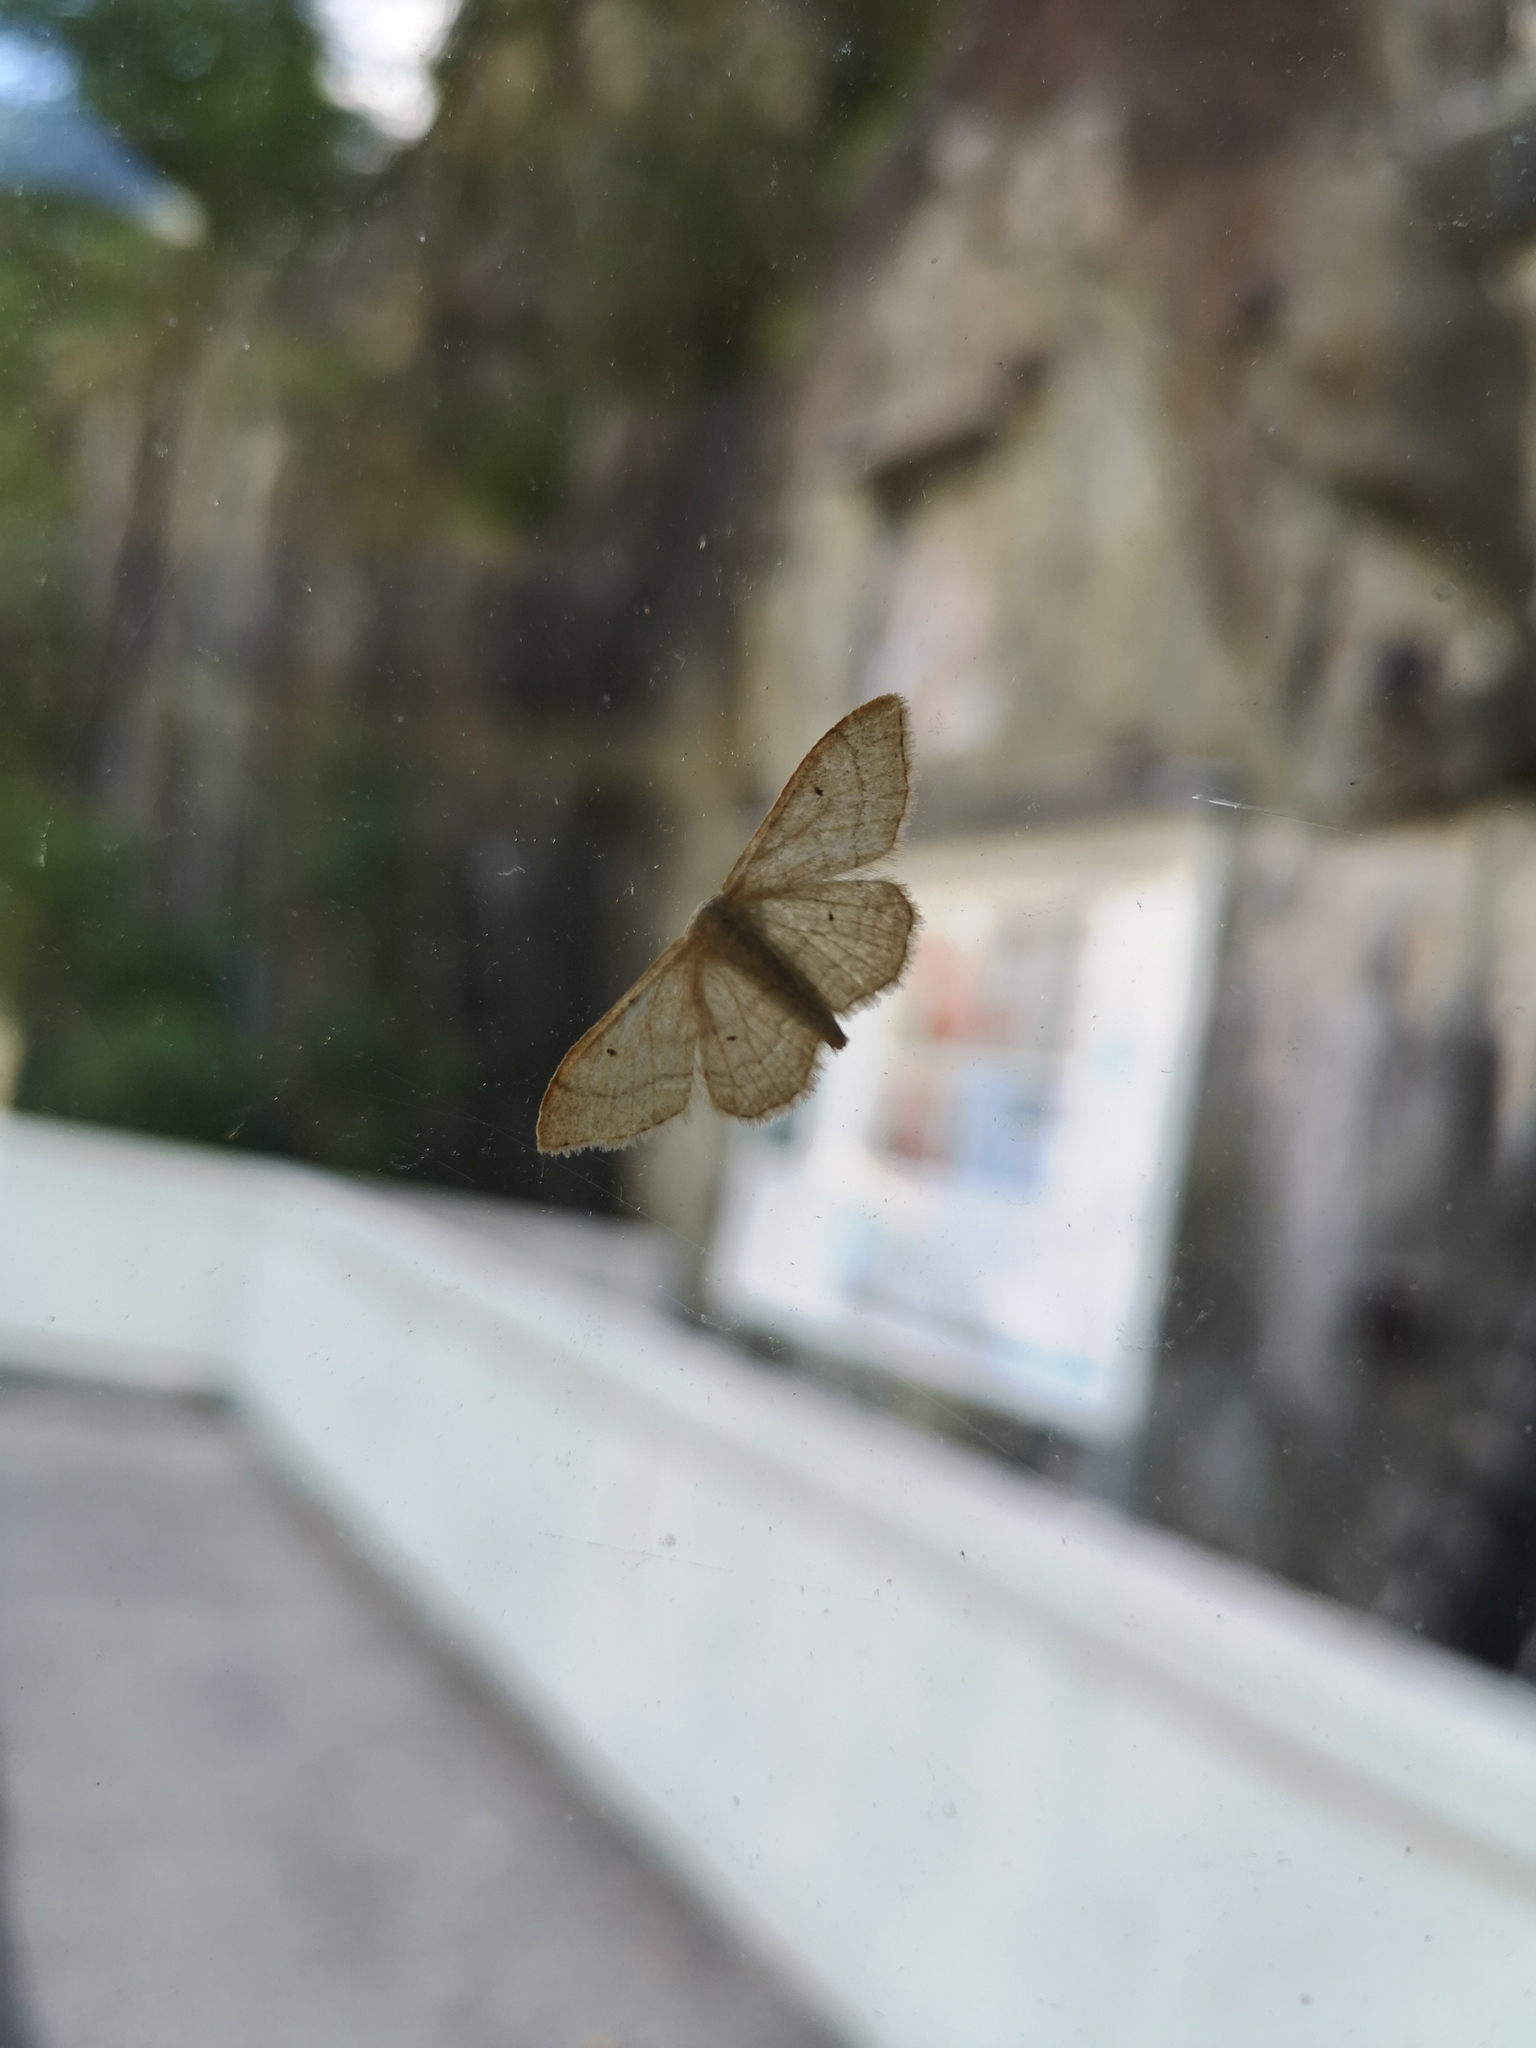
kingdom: Animalia
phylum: Arthropoda
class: Insecta
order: Lepidoptera
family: Geometridae
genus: Idaea
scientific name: Idaea straminata
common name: Plain wave
